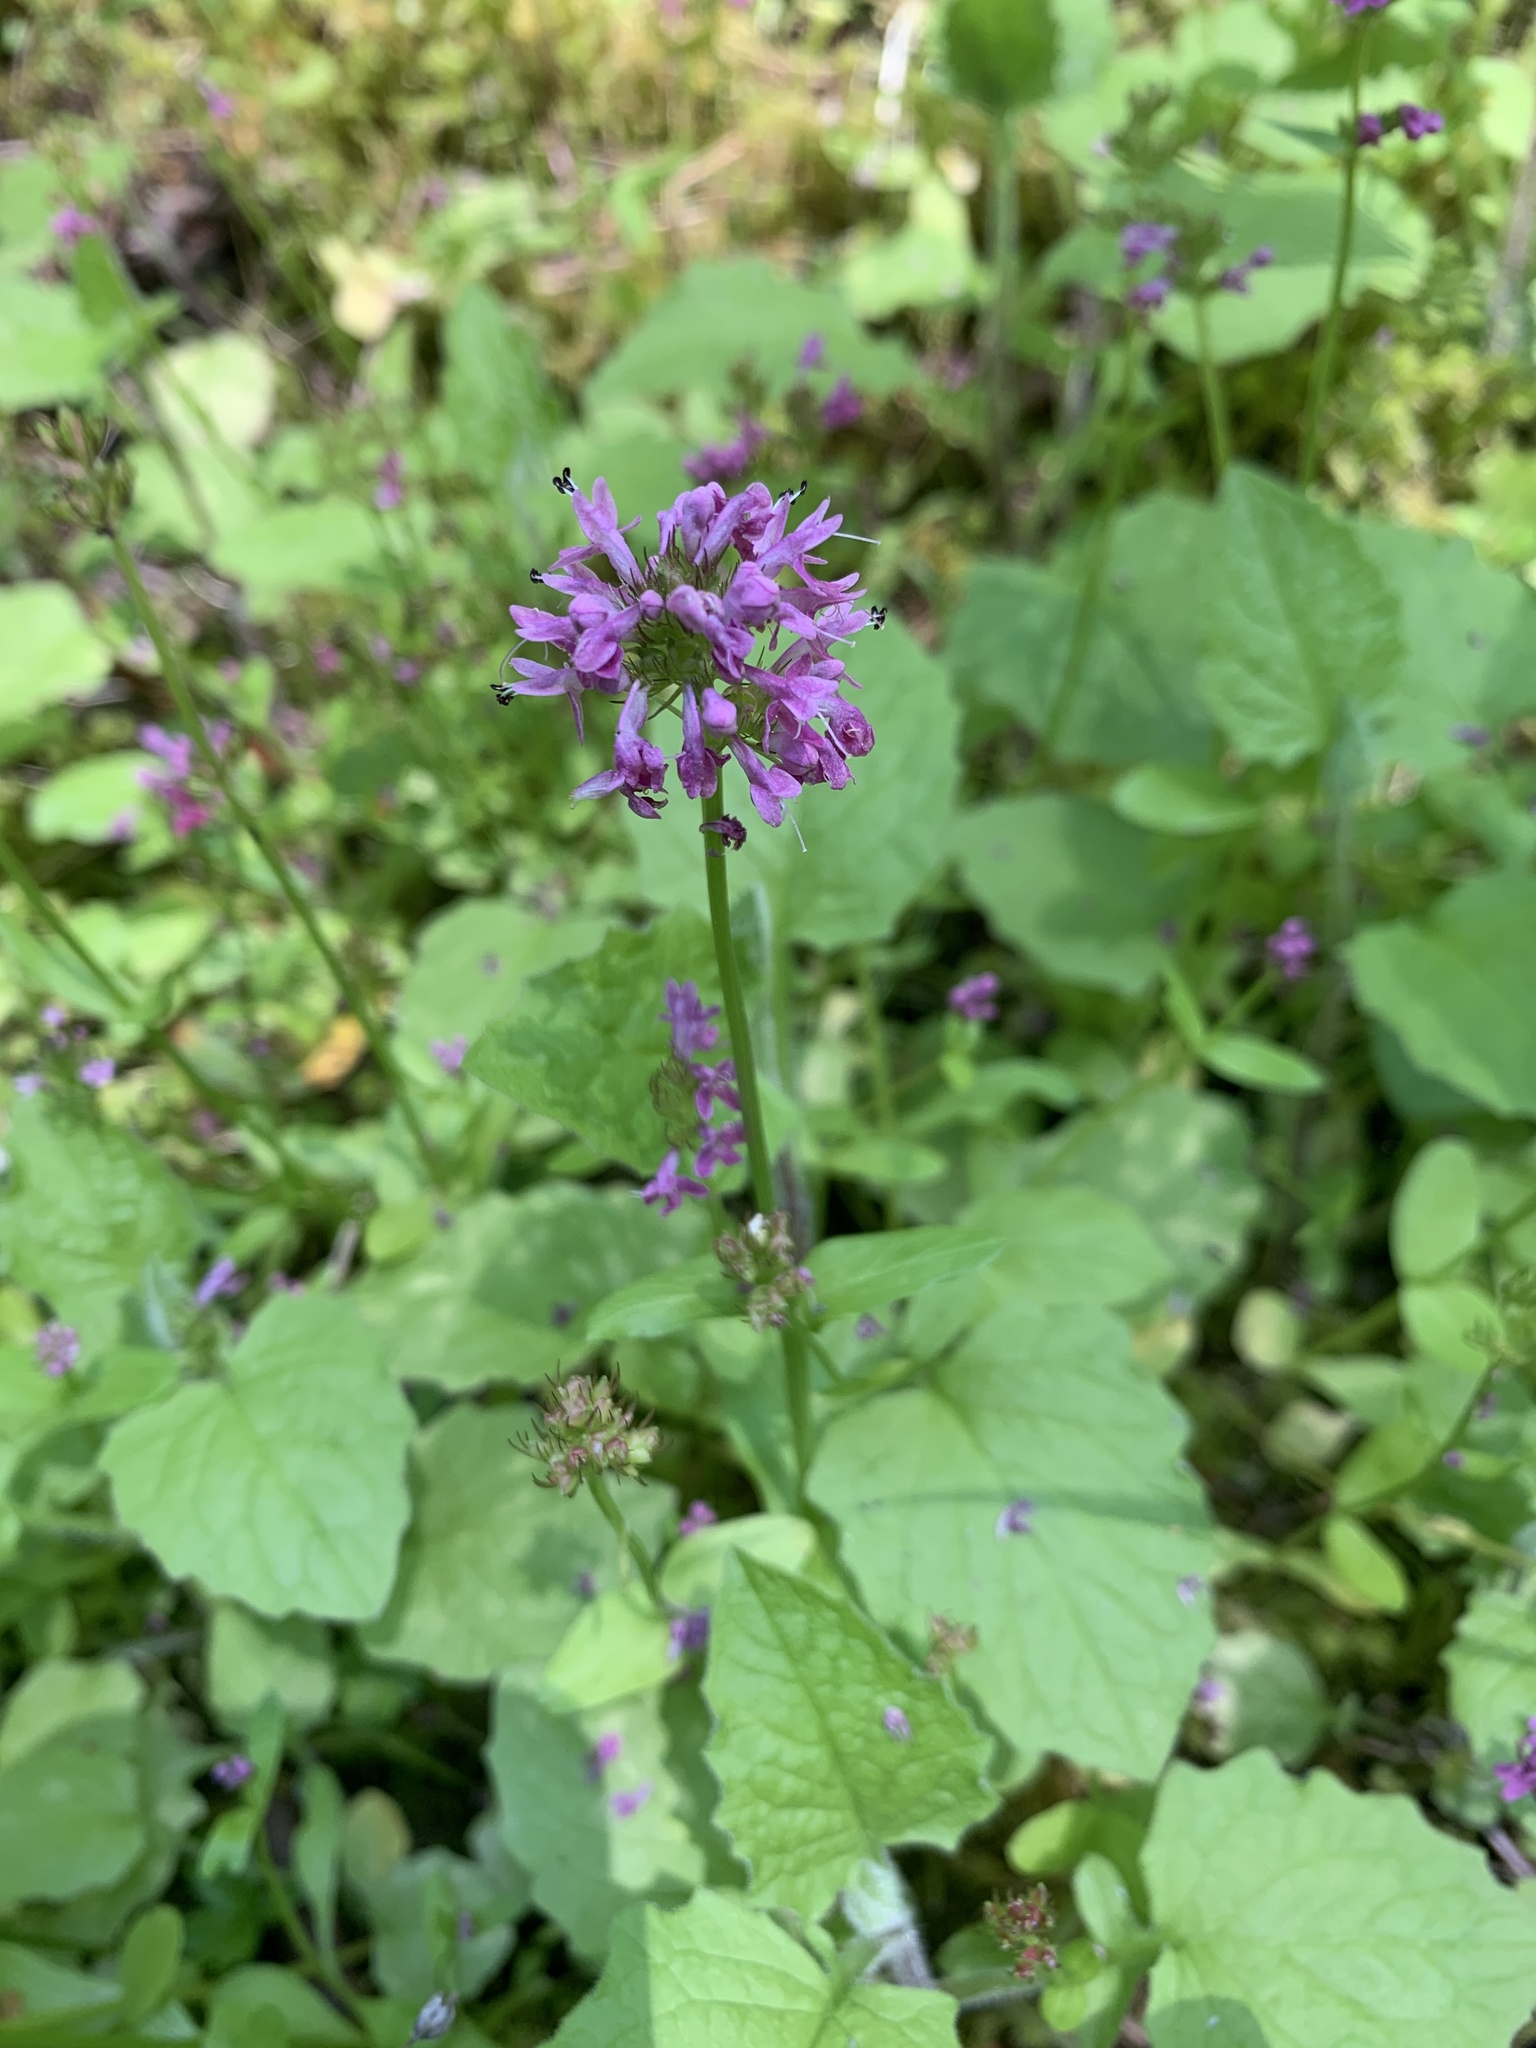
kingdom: Plantae
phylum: Tracheophyta
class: Magnoliopsida
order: Dipsacales
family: Caprifoliaceae
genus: Plectritis
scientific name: Plectritis congesta
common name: Pink plectritis
